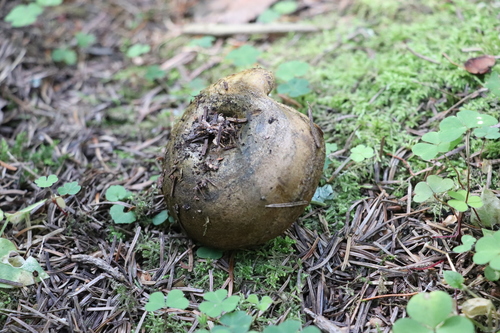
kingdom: Fungi
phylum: Basidiomycota
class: Agaricomycetes
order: Russulales
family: Russulaceae
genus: Lactarius
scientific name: Lactarius turpis
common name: Ugly milk-cap
